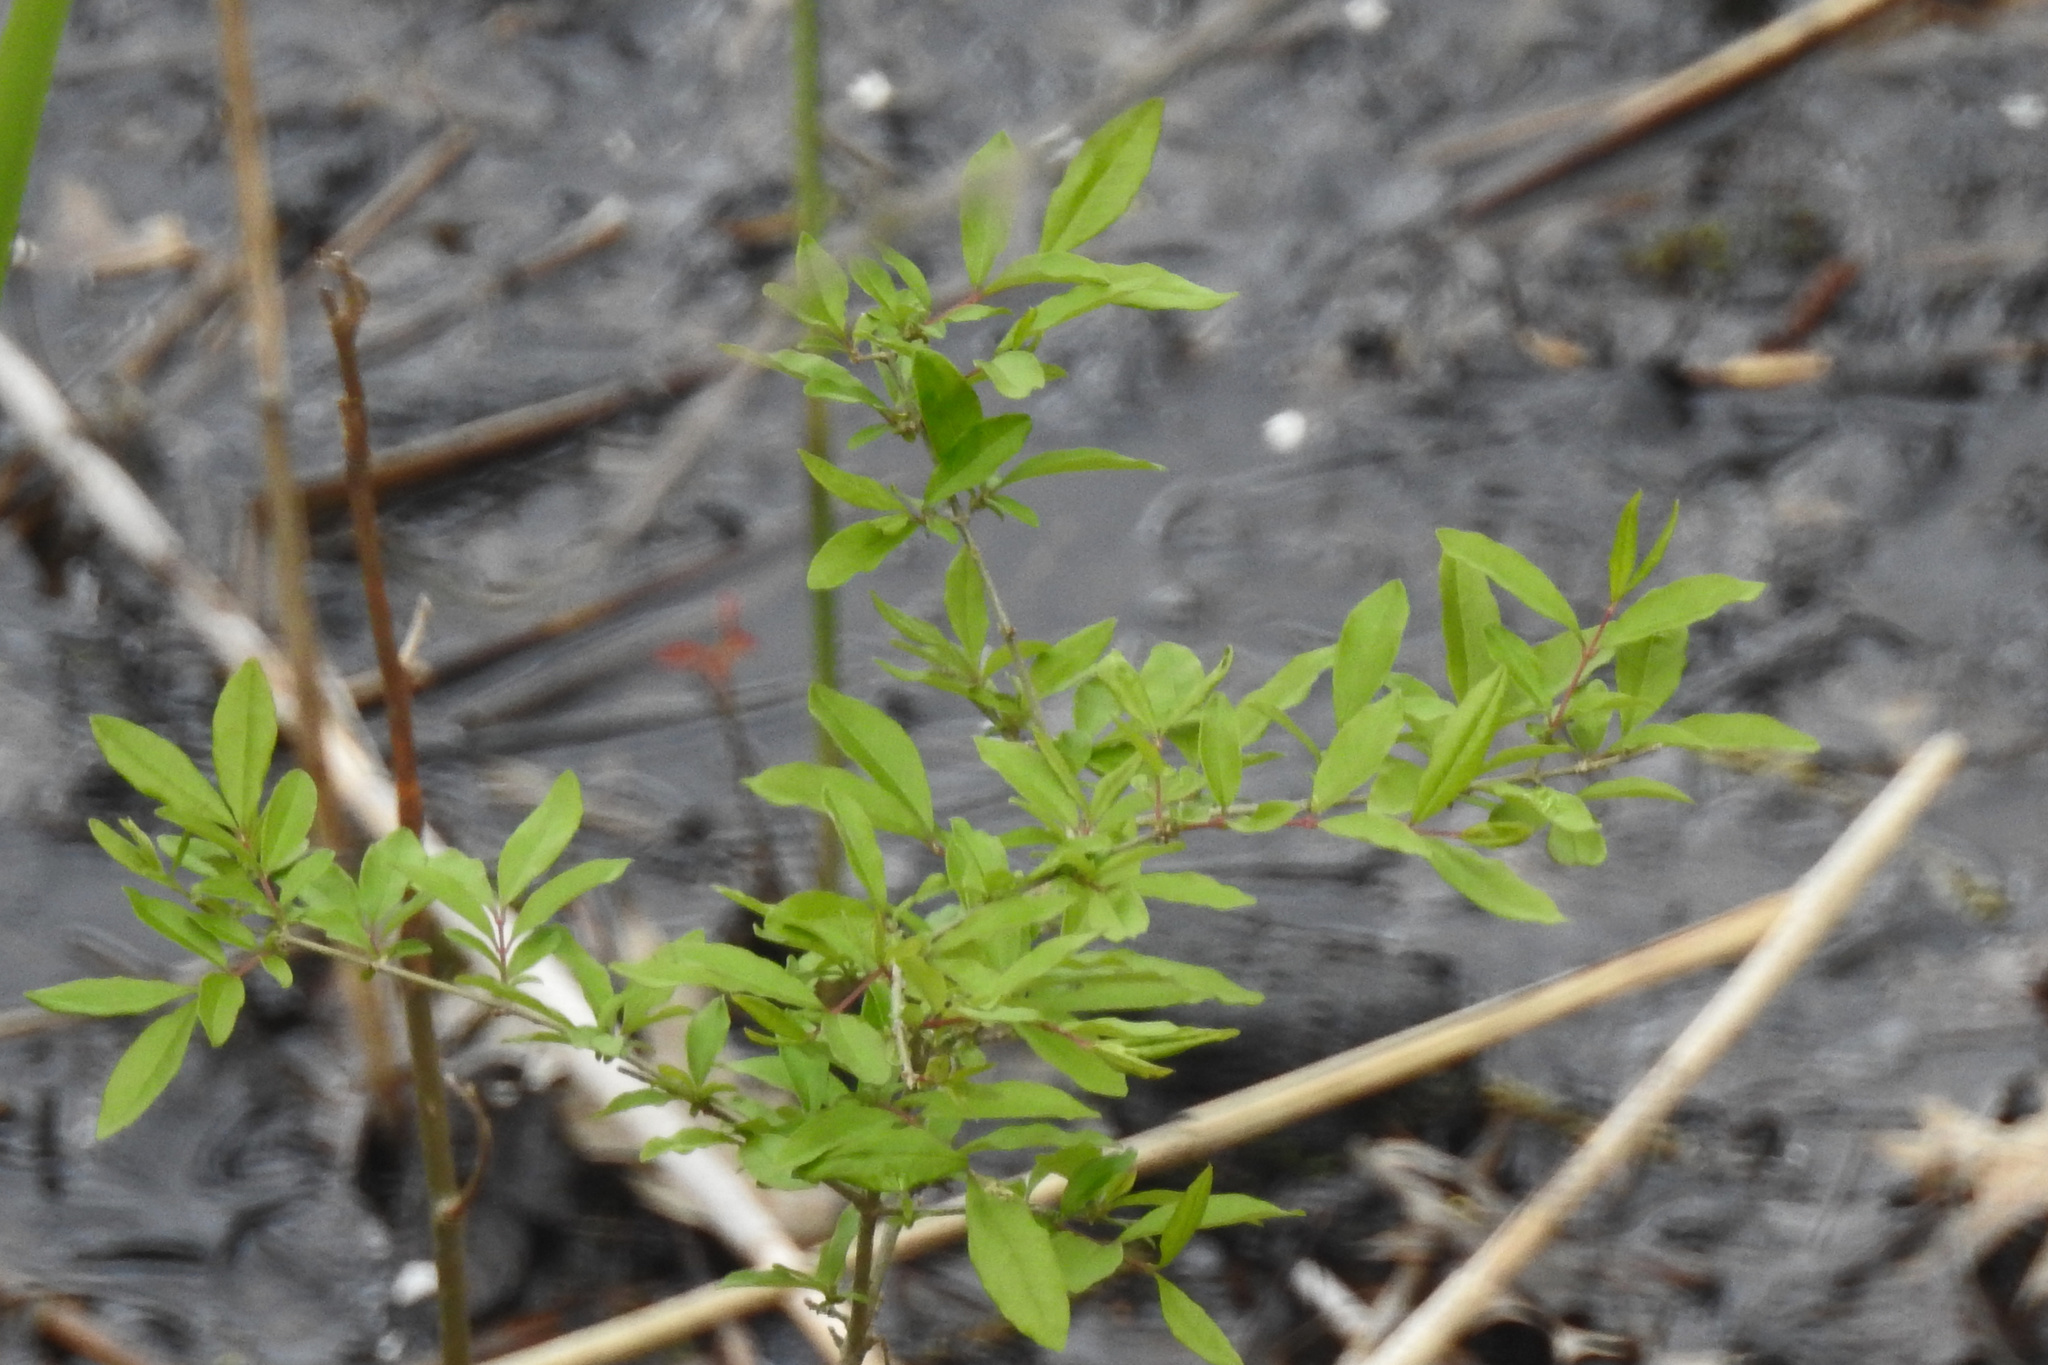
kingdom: Plantae
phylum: Tracheophyta
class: Magnoliopsida
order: Lamiales
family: Oleaceae
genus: Ligustrum
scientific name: Ligustrum obtusifolium
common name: Border privet
